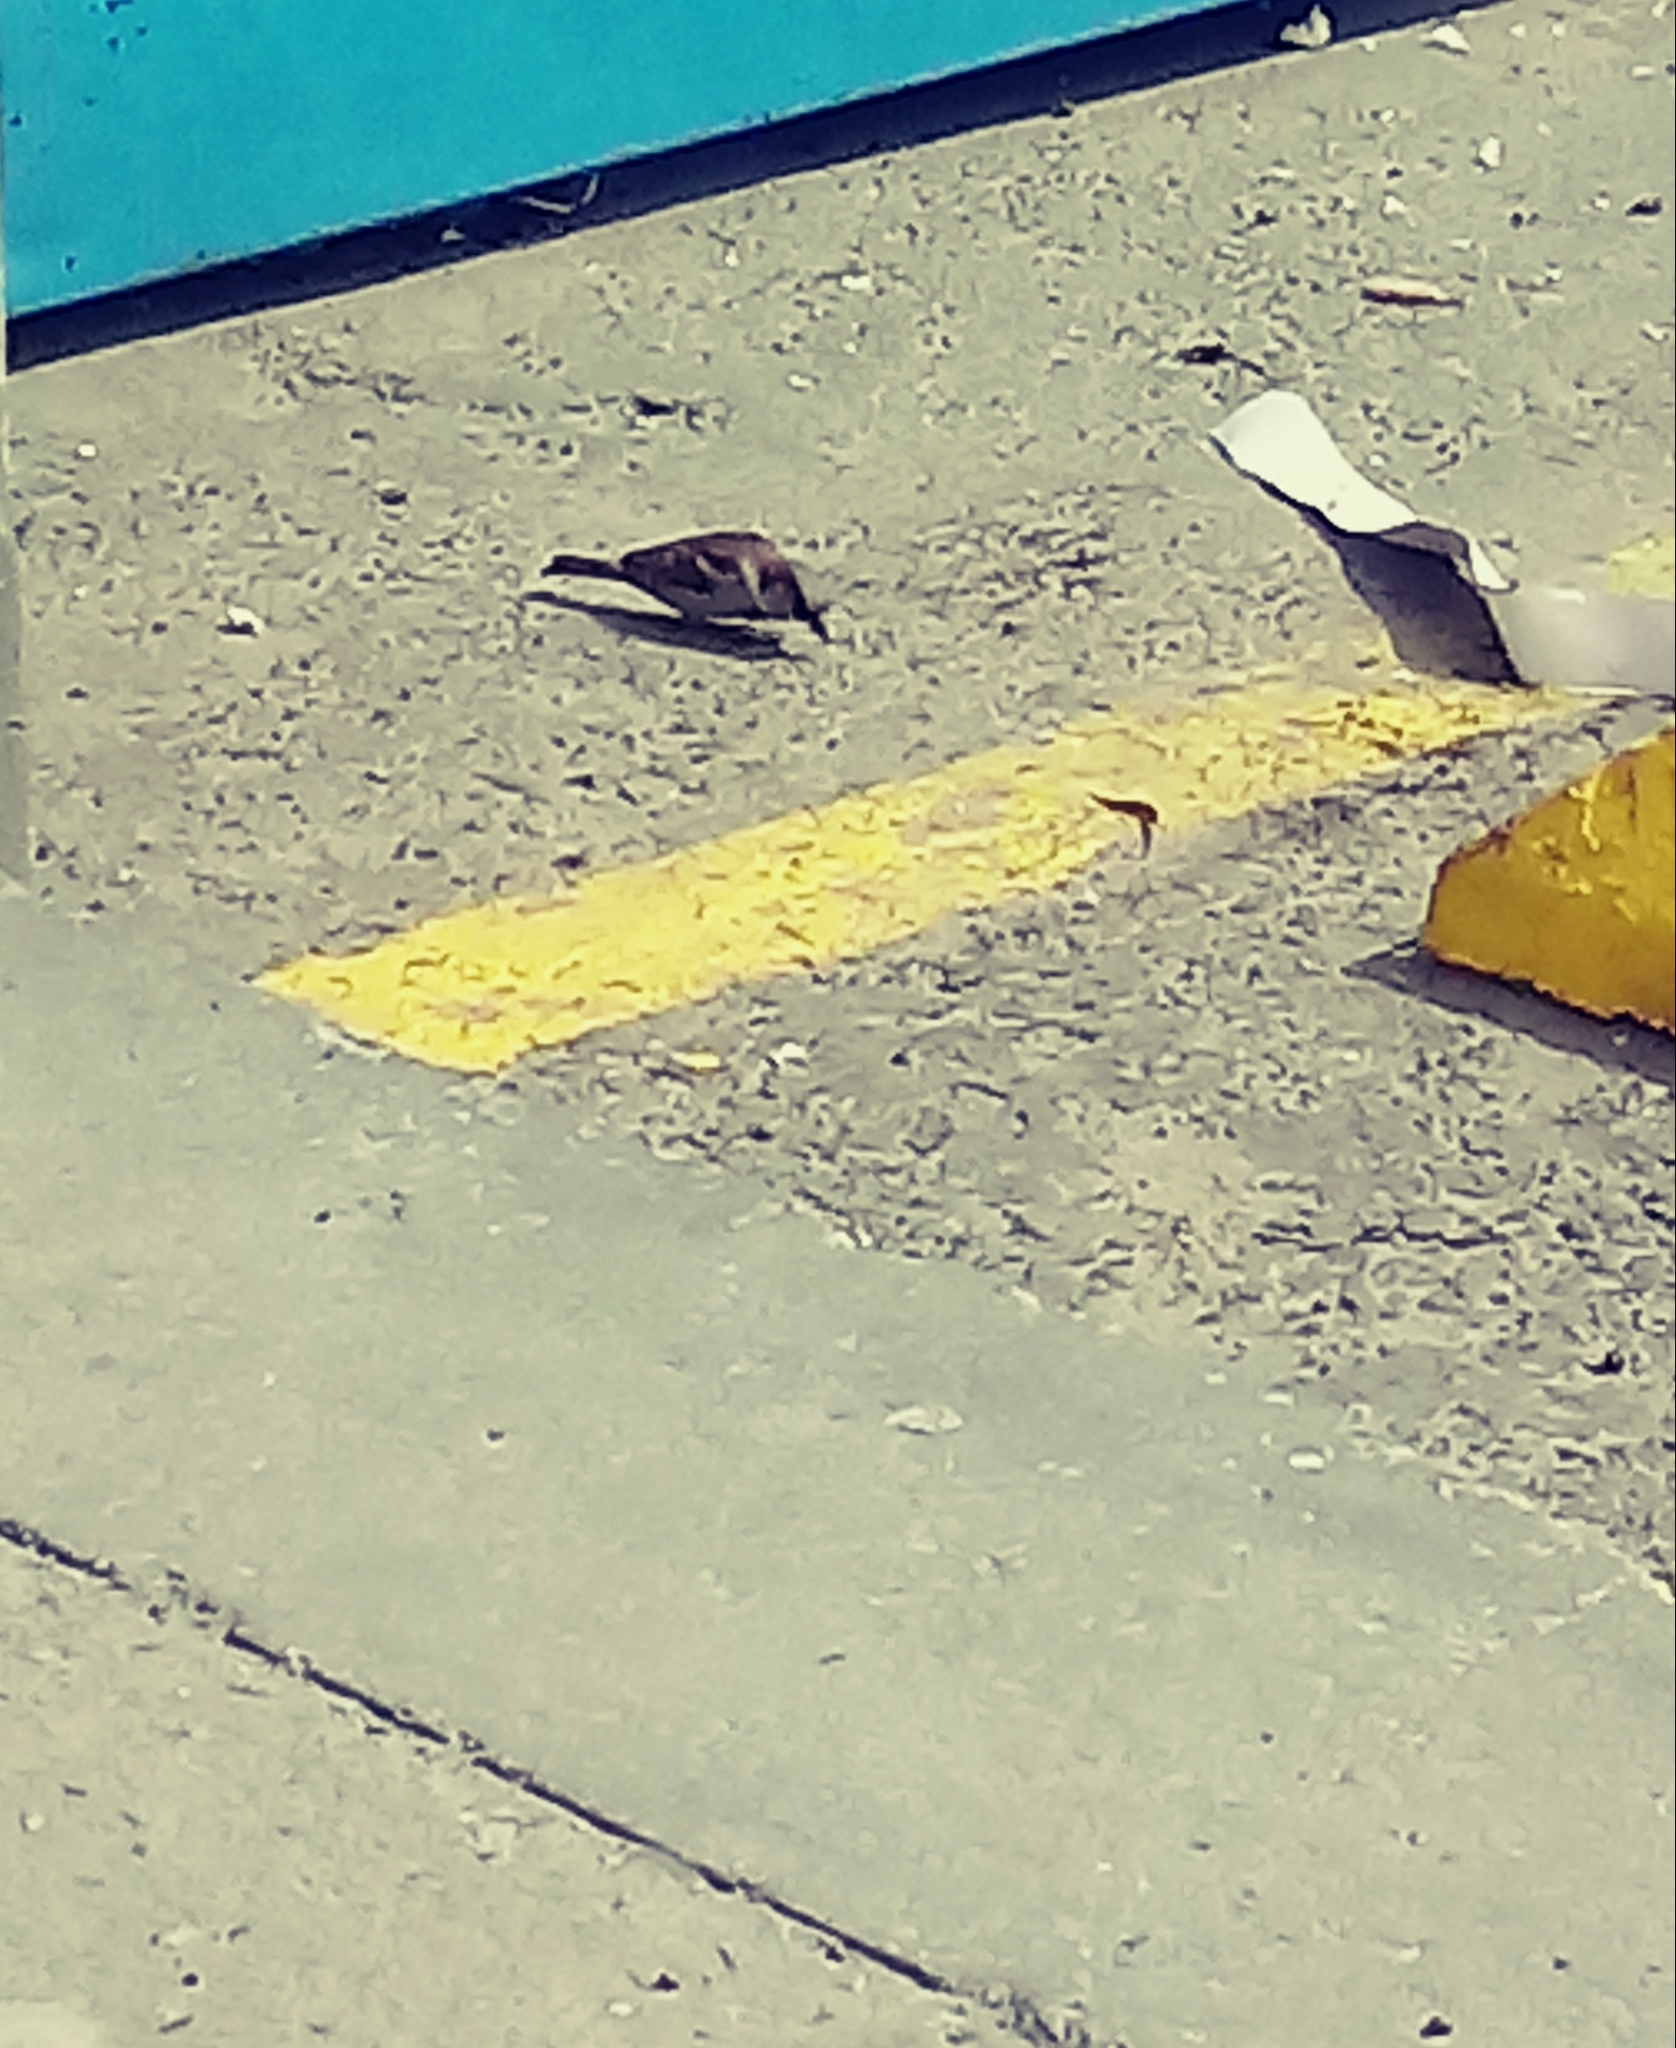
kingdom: Animalia
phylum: Chordata
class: Aves
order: Passeriformes
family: Passeridae
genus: Passer
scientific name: Passer domesticus
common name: House sparrow
